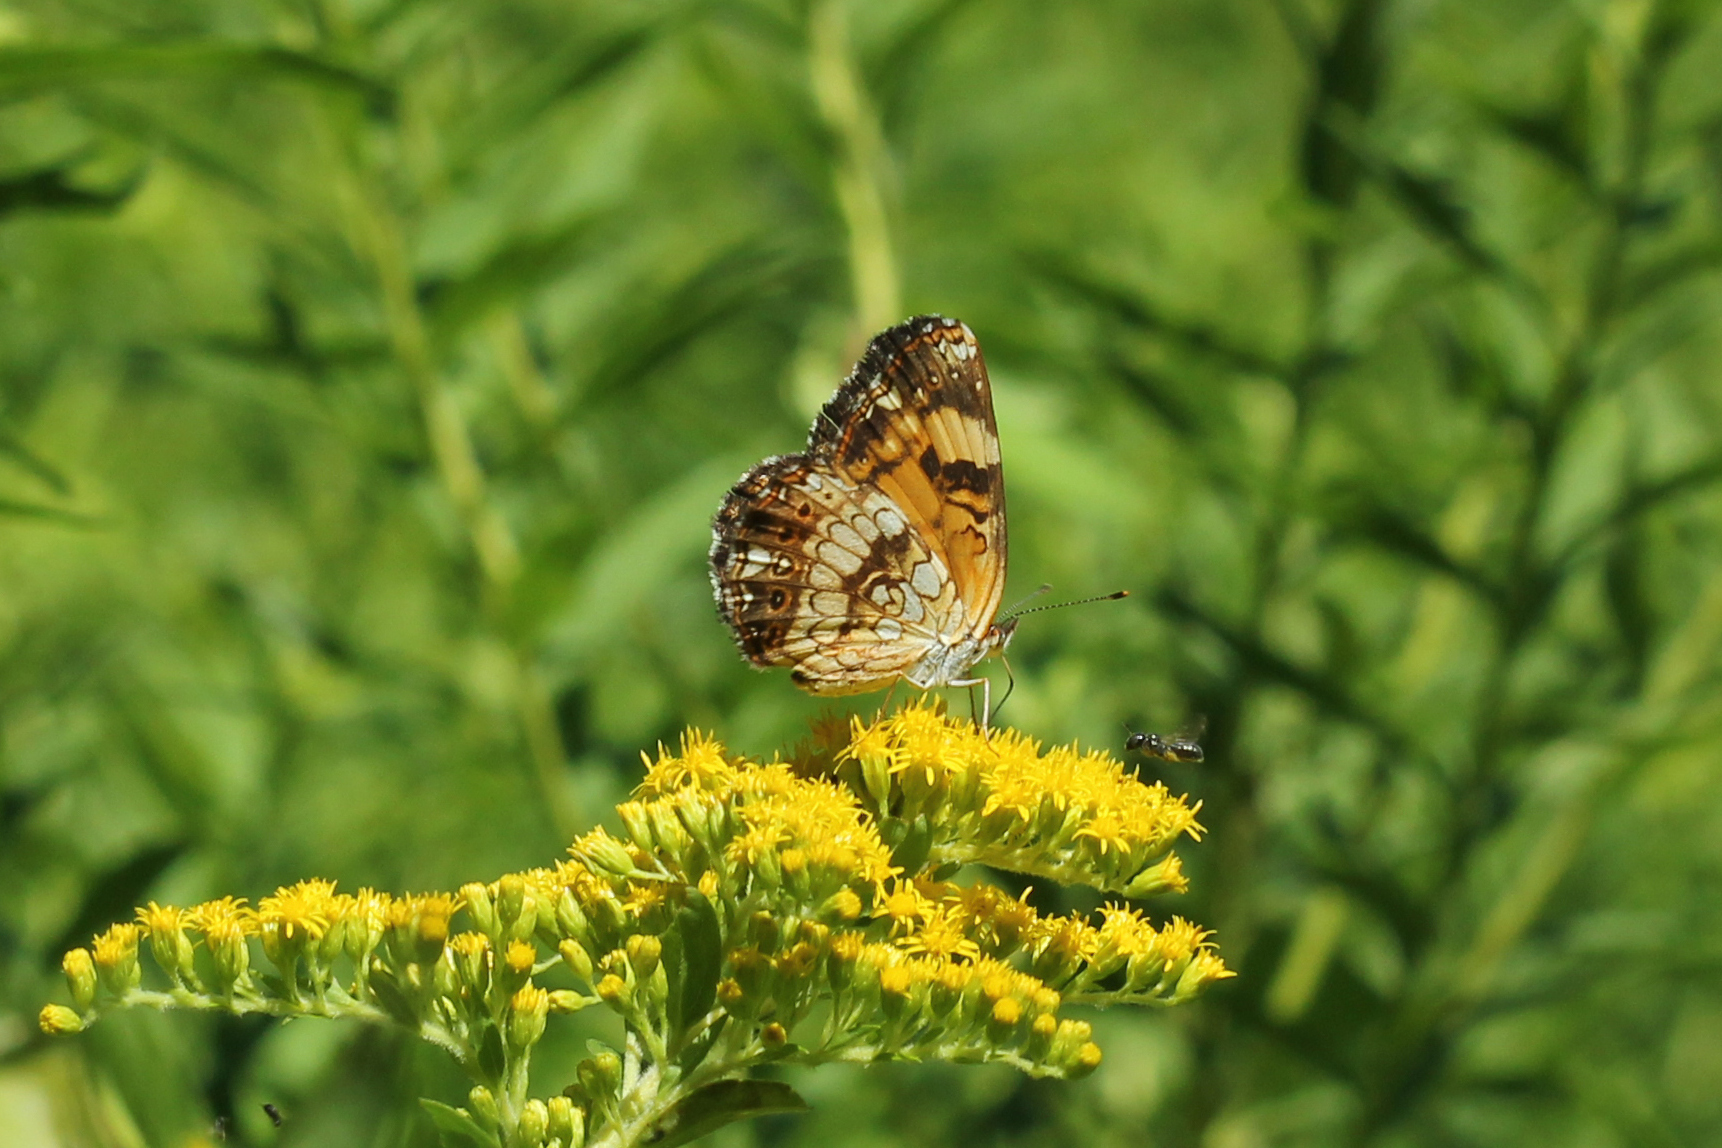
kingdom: Animalia
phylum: Arthropoda
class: Insecta
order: Lepidoptera
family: Nymphalidae
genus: Chlosyne
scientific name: Chlosyne nycteis
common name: Silvery checkerspot
